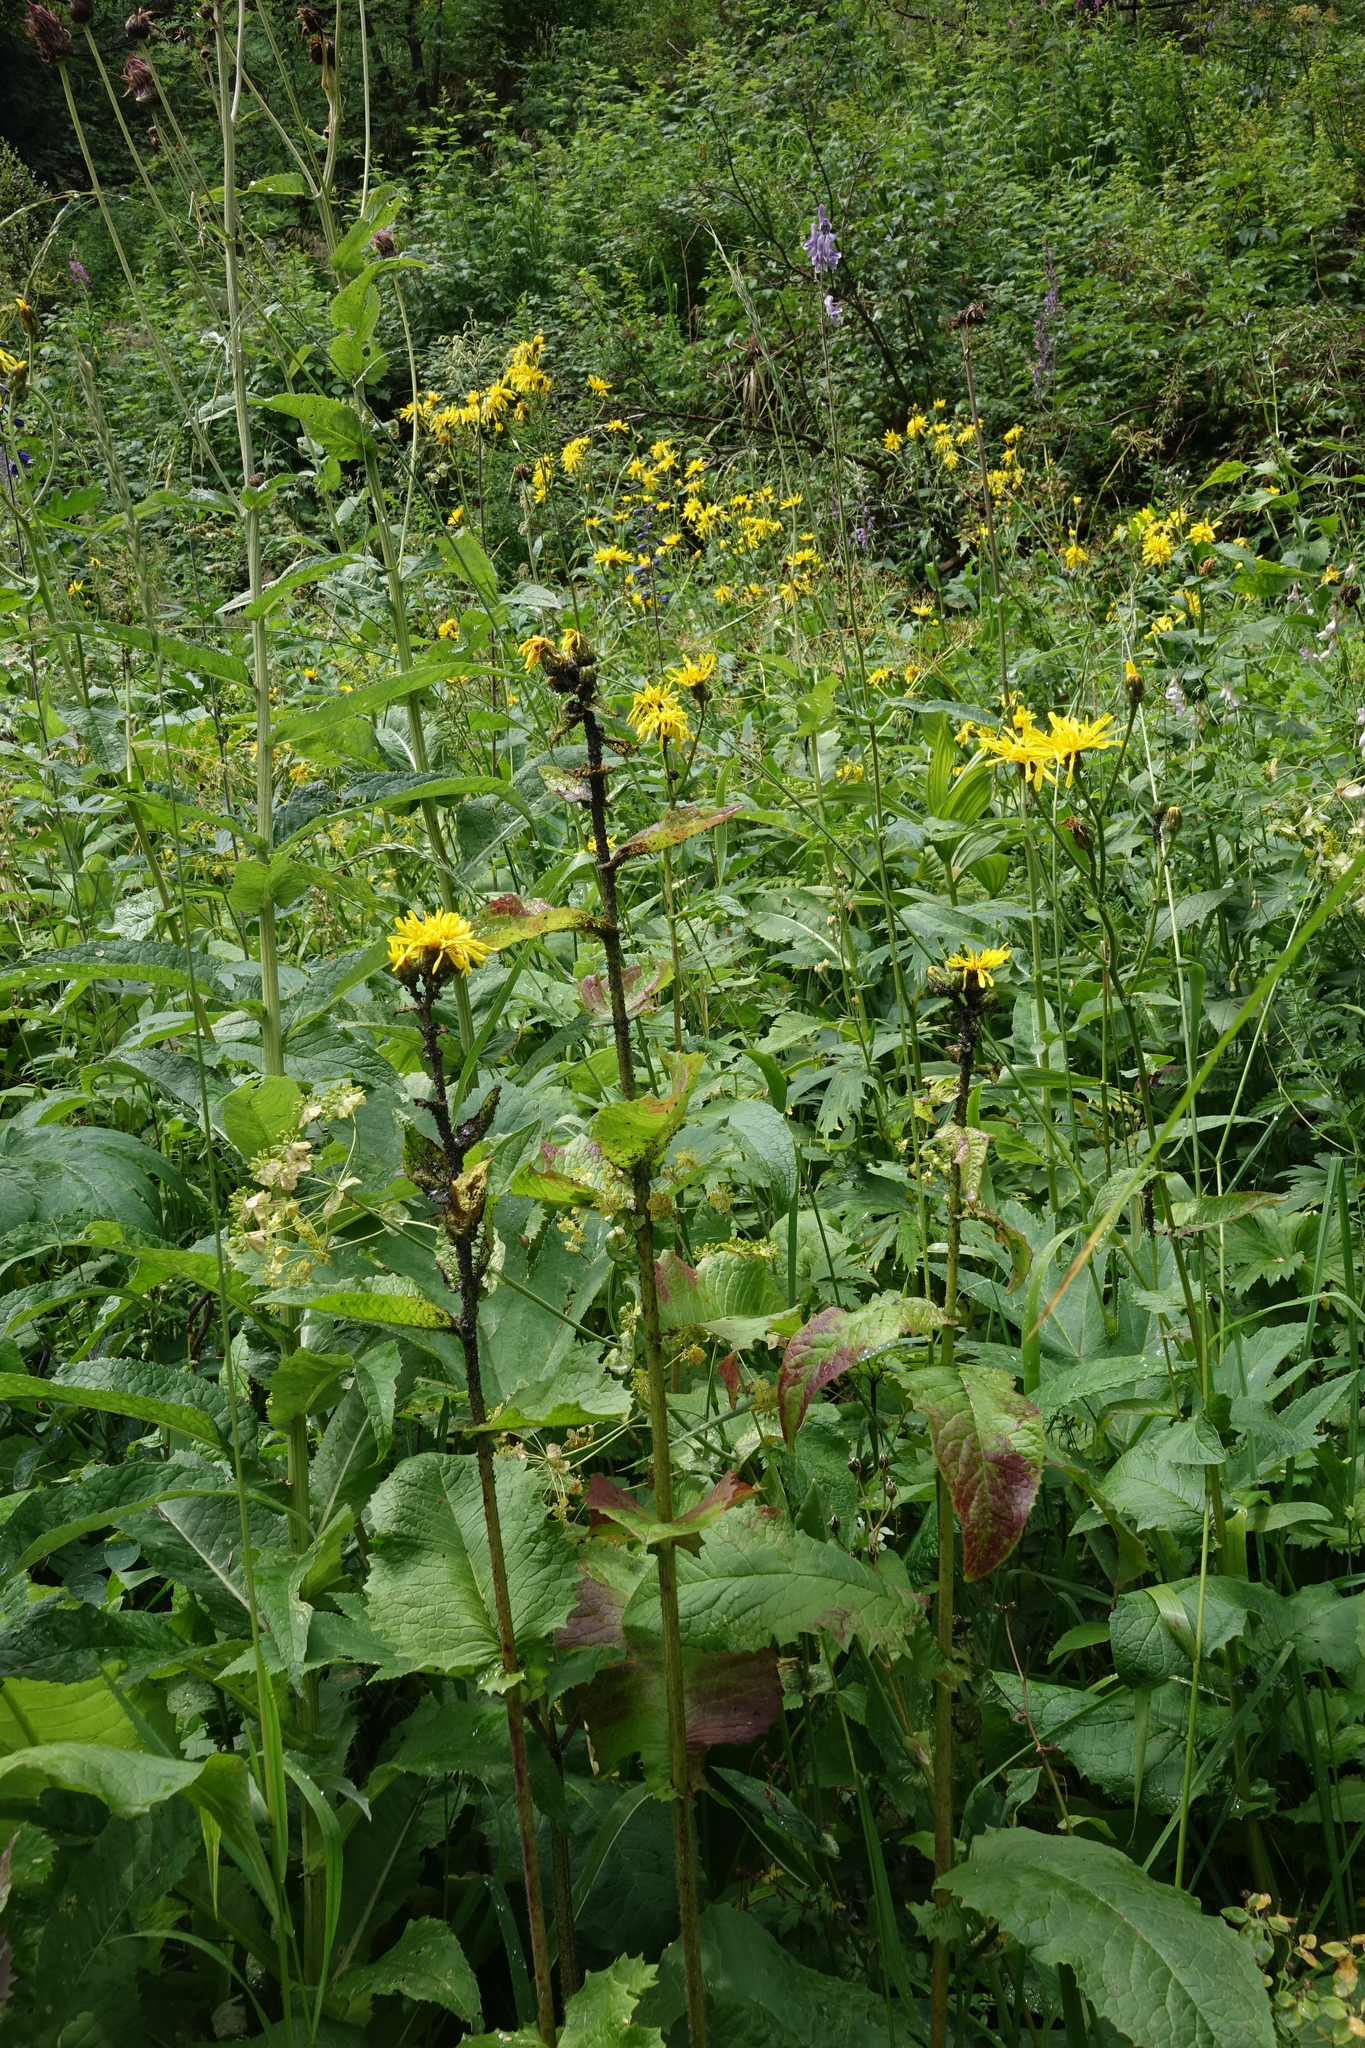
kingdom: Plantae
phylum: Tracheophyta
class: Magnoliopsida
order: Asterales
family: Asteraceae
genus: Crepis
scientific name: Crepis sibirica
